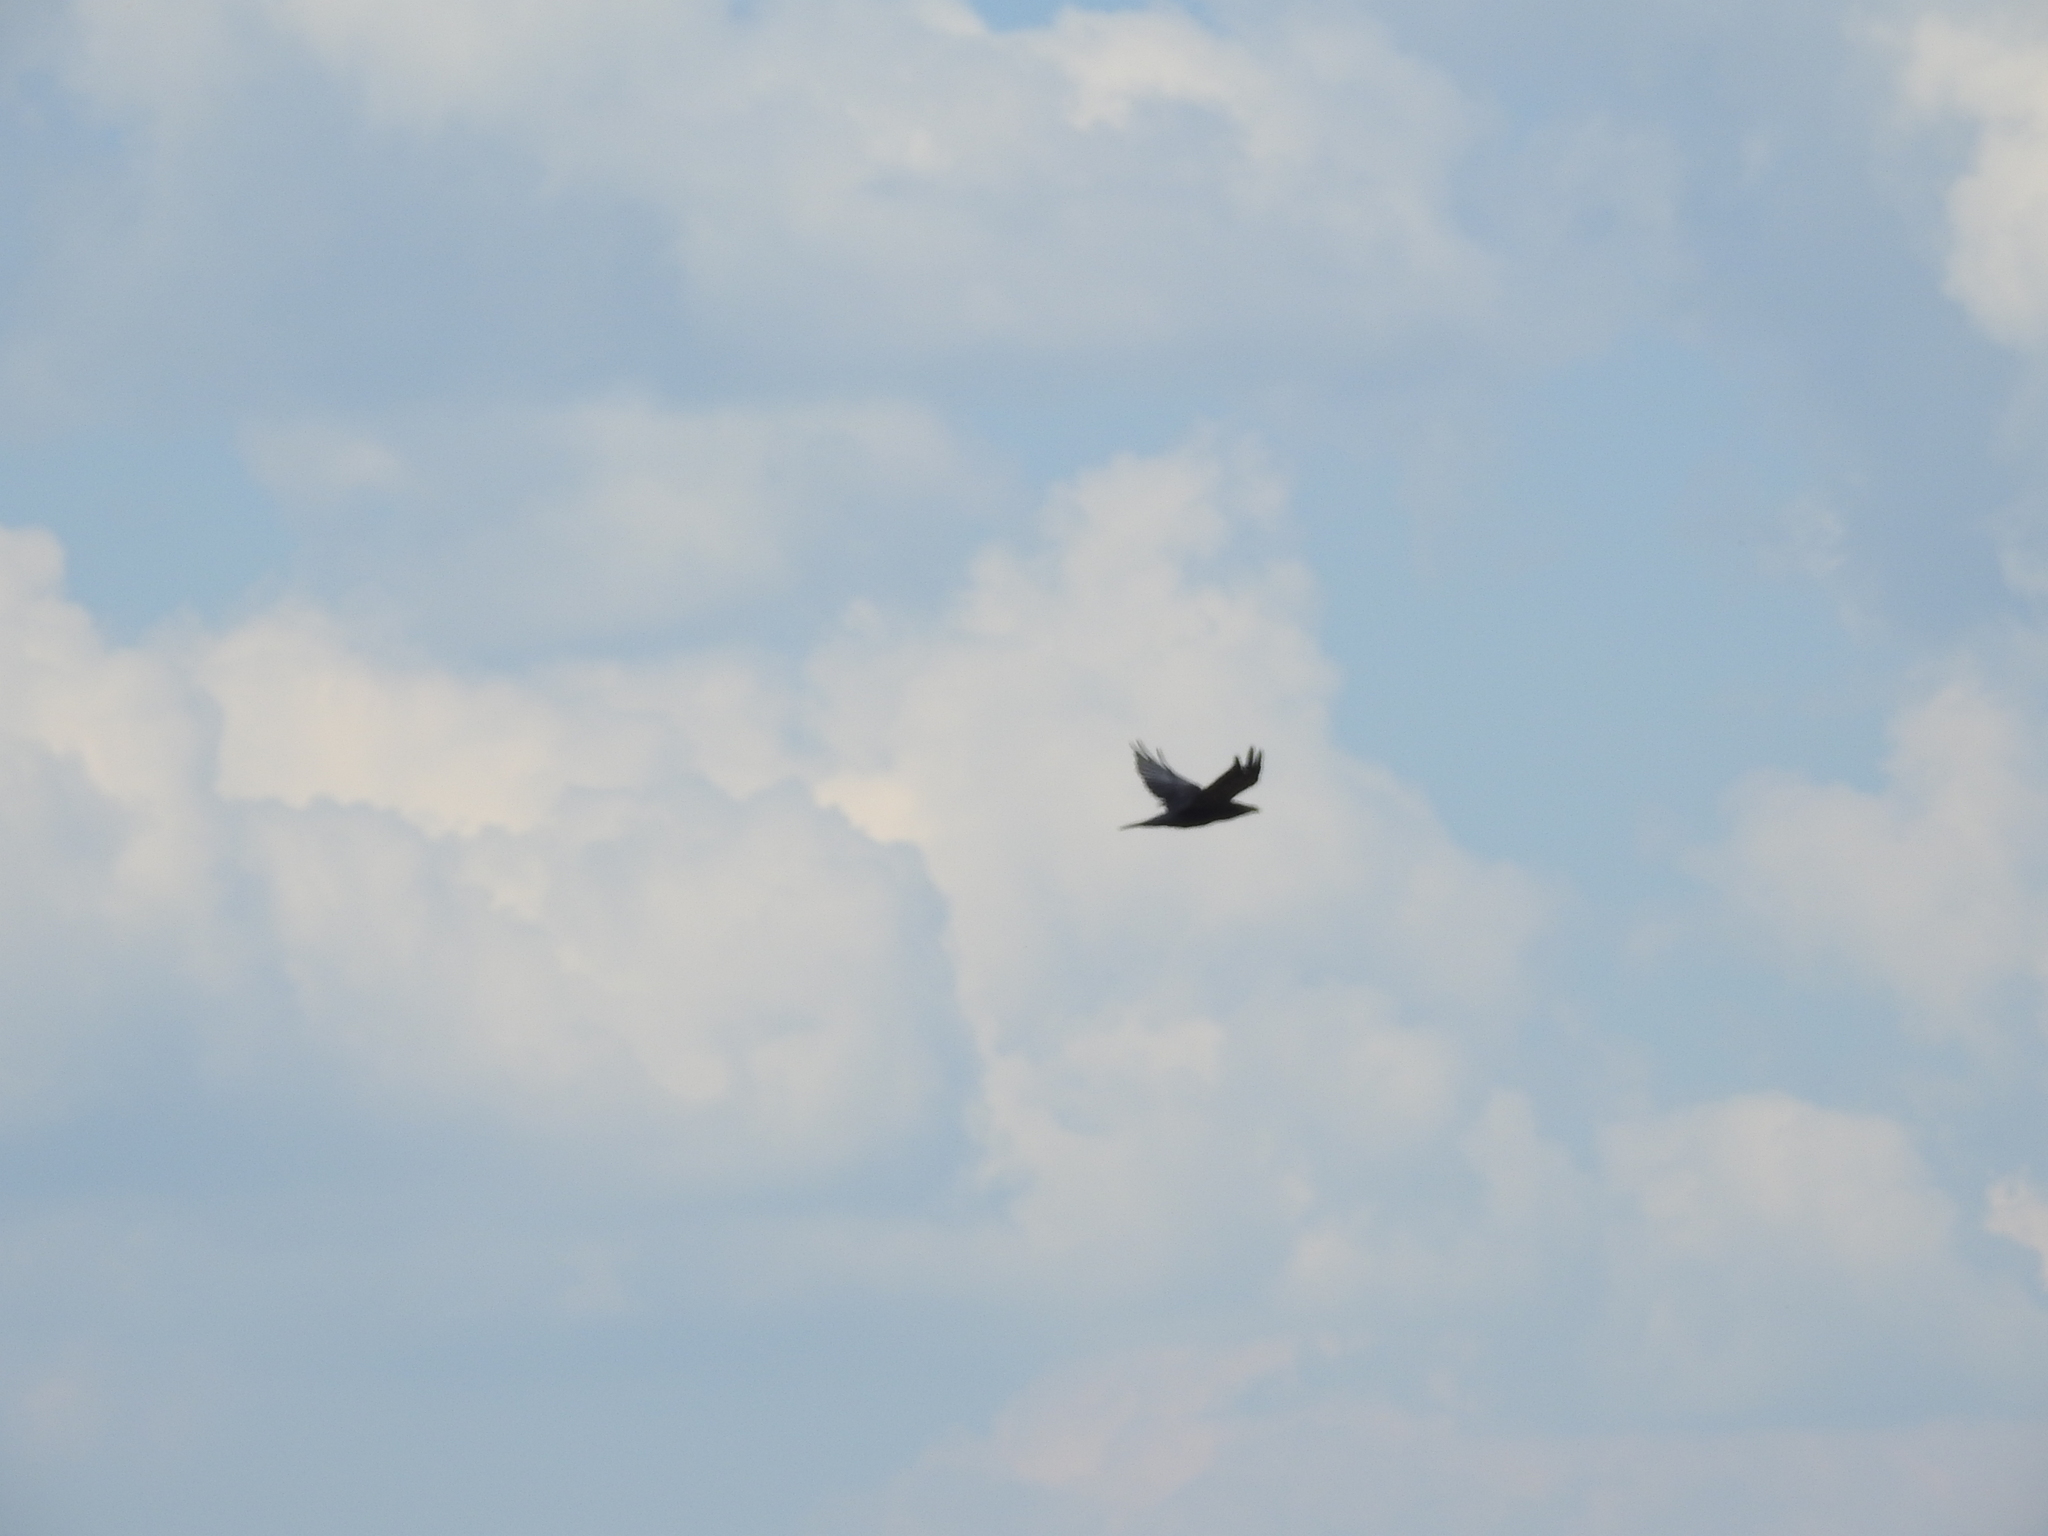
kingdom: Animalia
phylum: Chordata
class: Aves
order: Passeriformes
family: Corvidae
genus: Corvus
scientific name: Corvus corax
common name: Common raven
